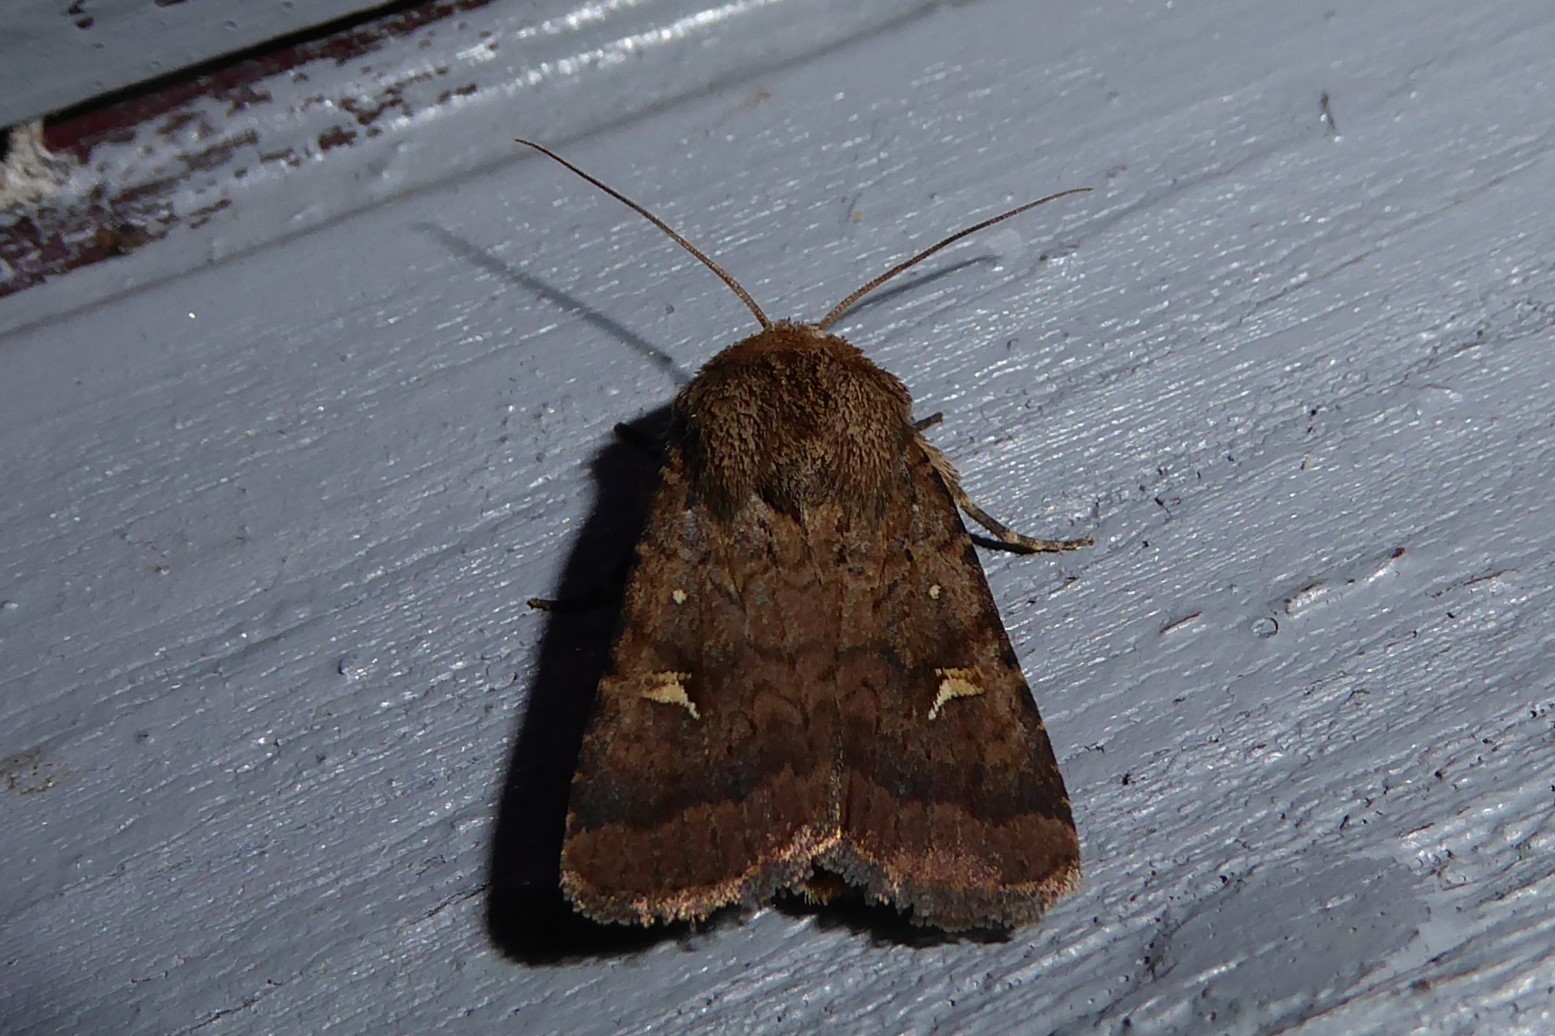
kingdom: Animalia
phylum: Arthropoda
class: Insecta
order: Lepidoptera
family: Noctuidae
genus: Proteuxoa
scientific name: Proteuxoa tetronycha
